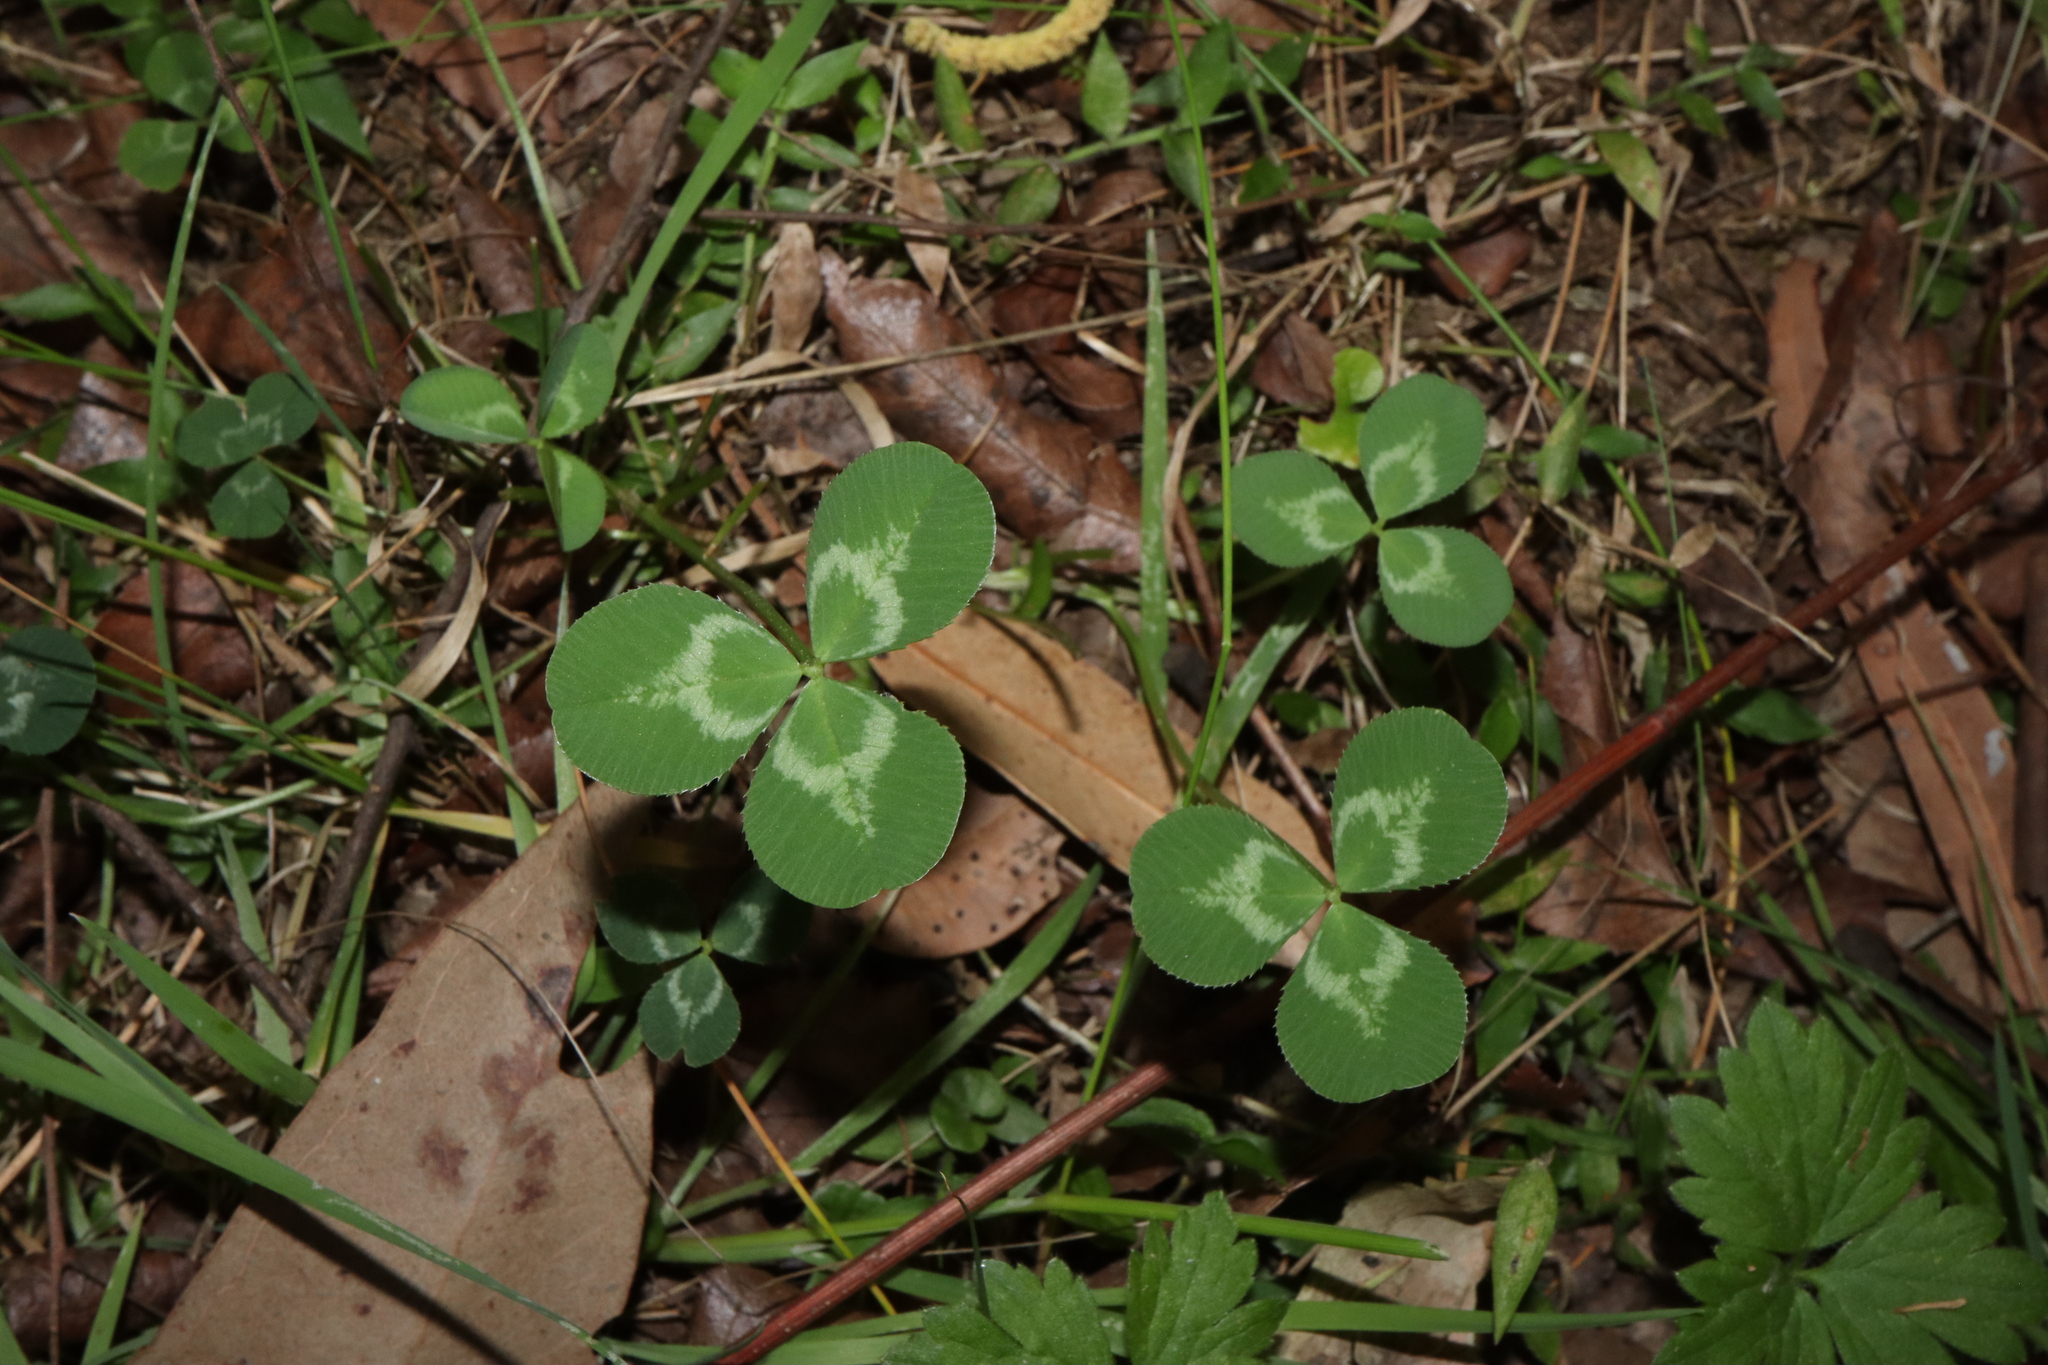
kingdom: Plantae
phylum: Tracheophyta
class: Magnoliopsida
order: Fabales
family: Fabaceae
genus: Trifolium
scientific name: Trifolium repens
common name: White clover
